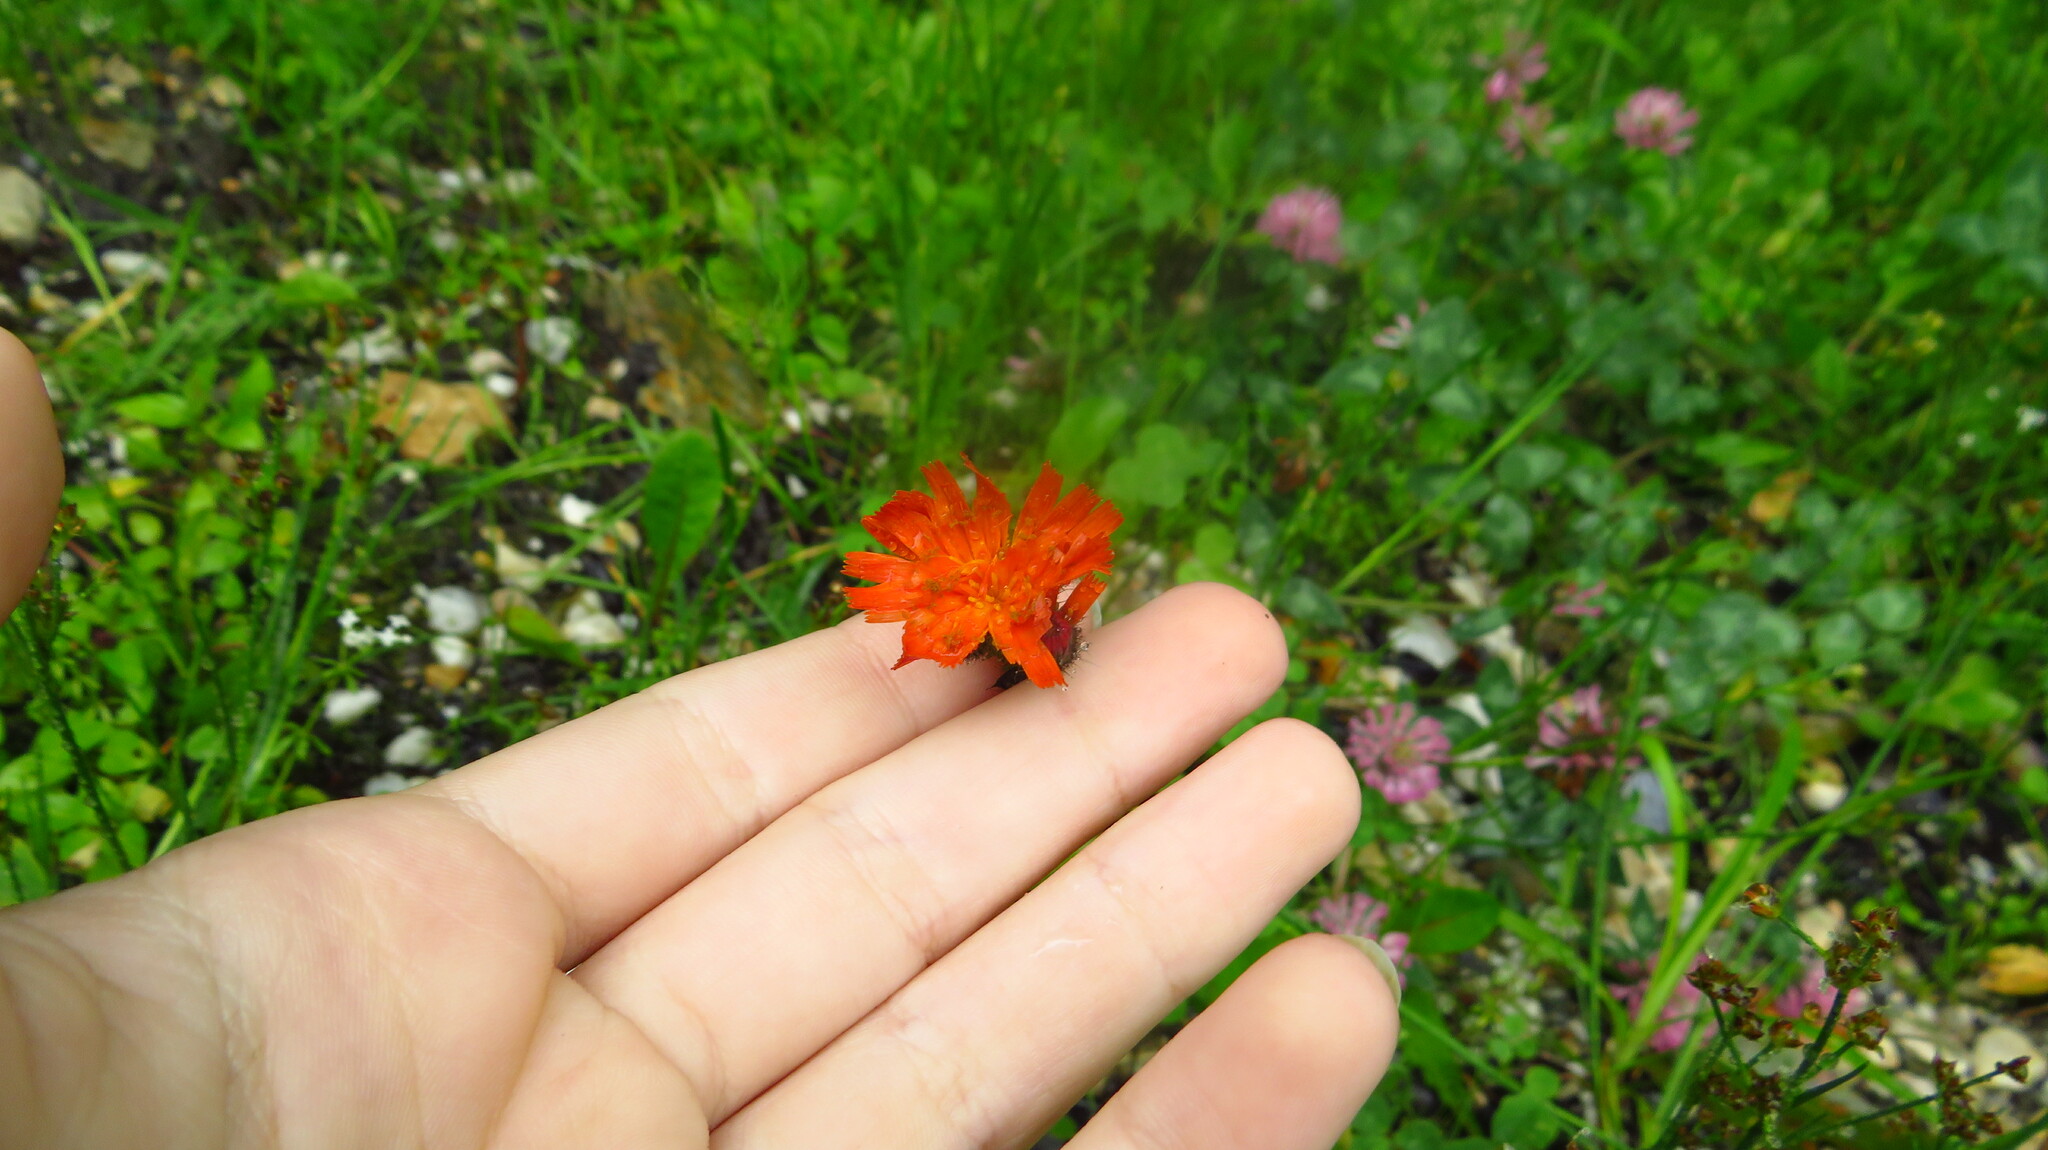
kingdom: Plantae
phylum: Tracheophyta
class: Magnoliopsida
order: Asterales
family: Asteraceae
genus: Pilosella
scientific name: Pilosella aurantiaca
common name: Fox-and-cubs
